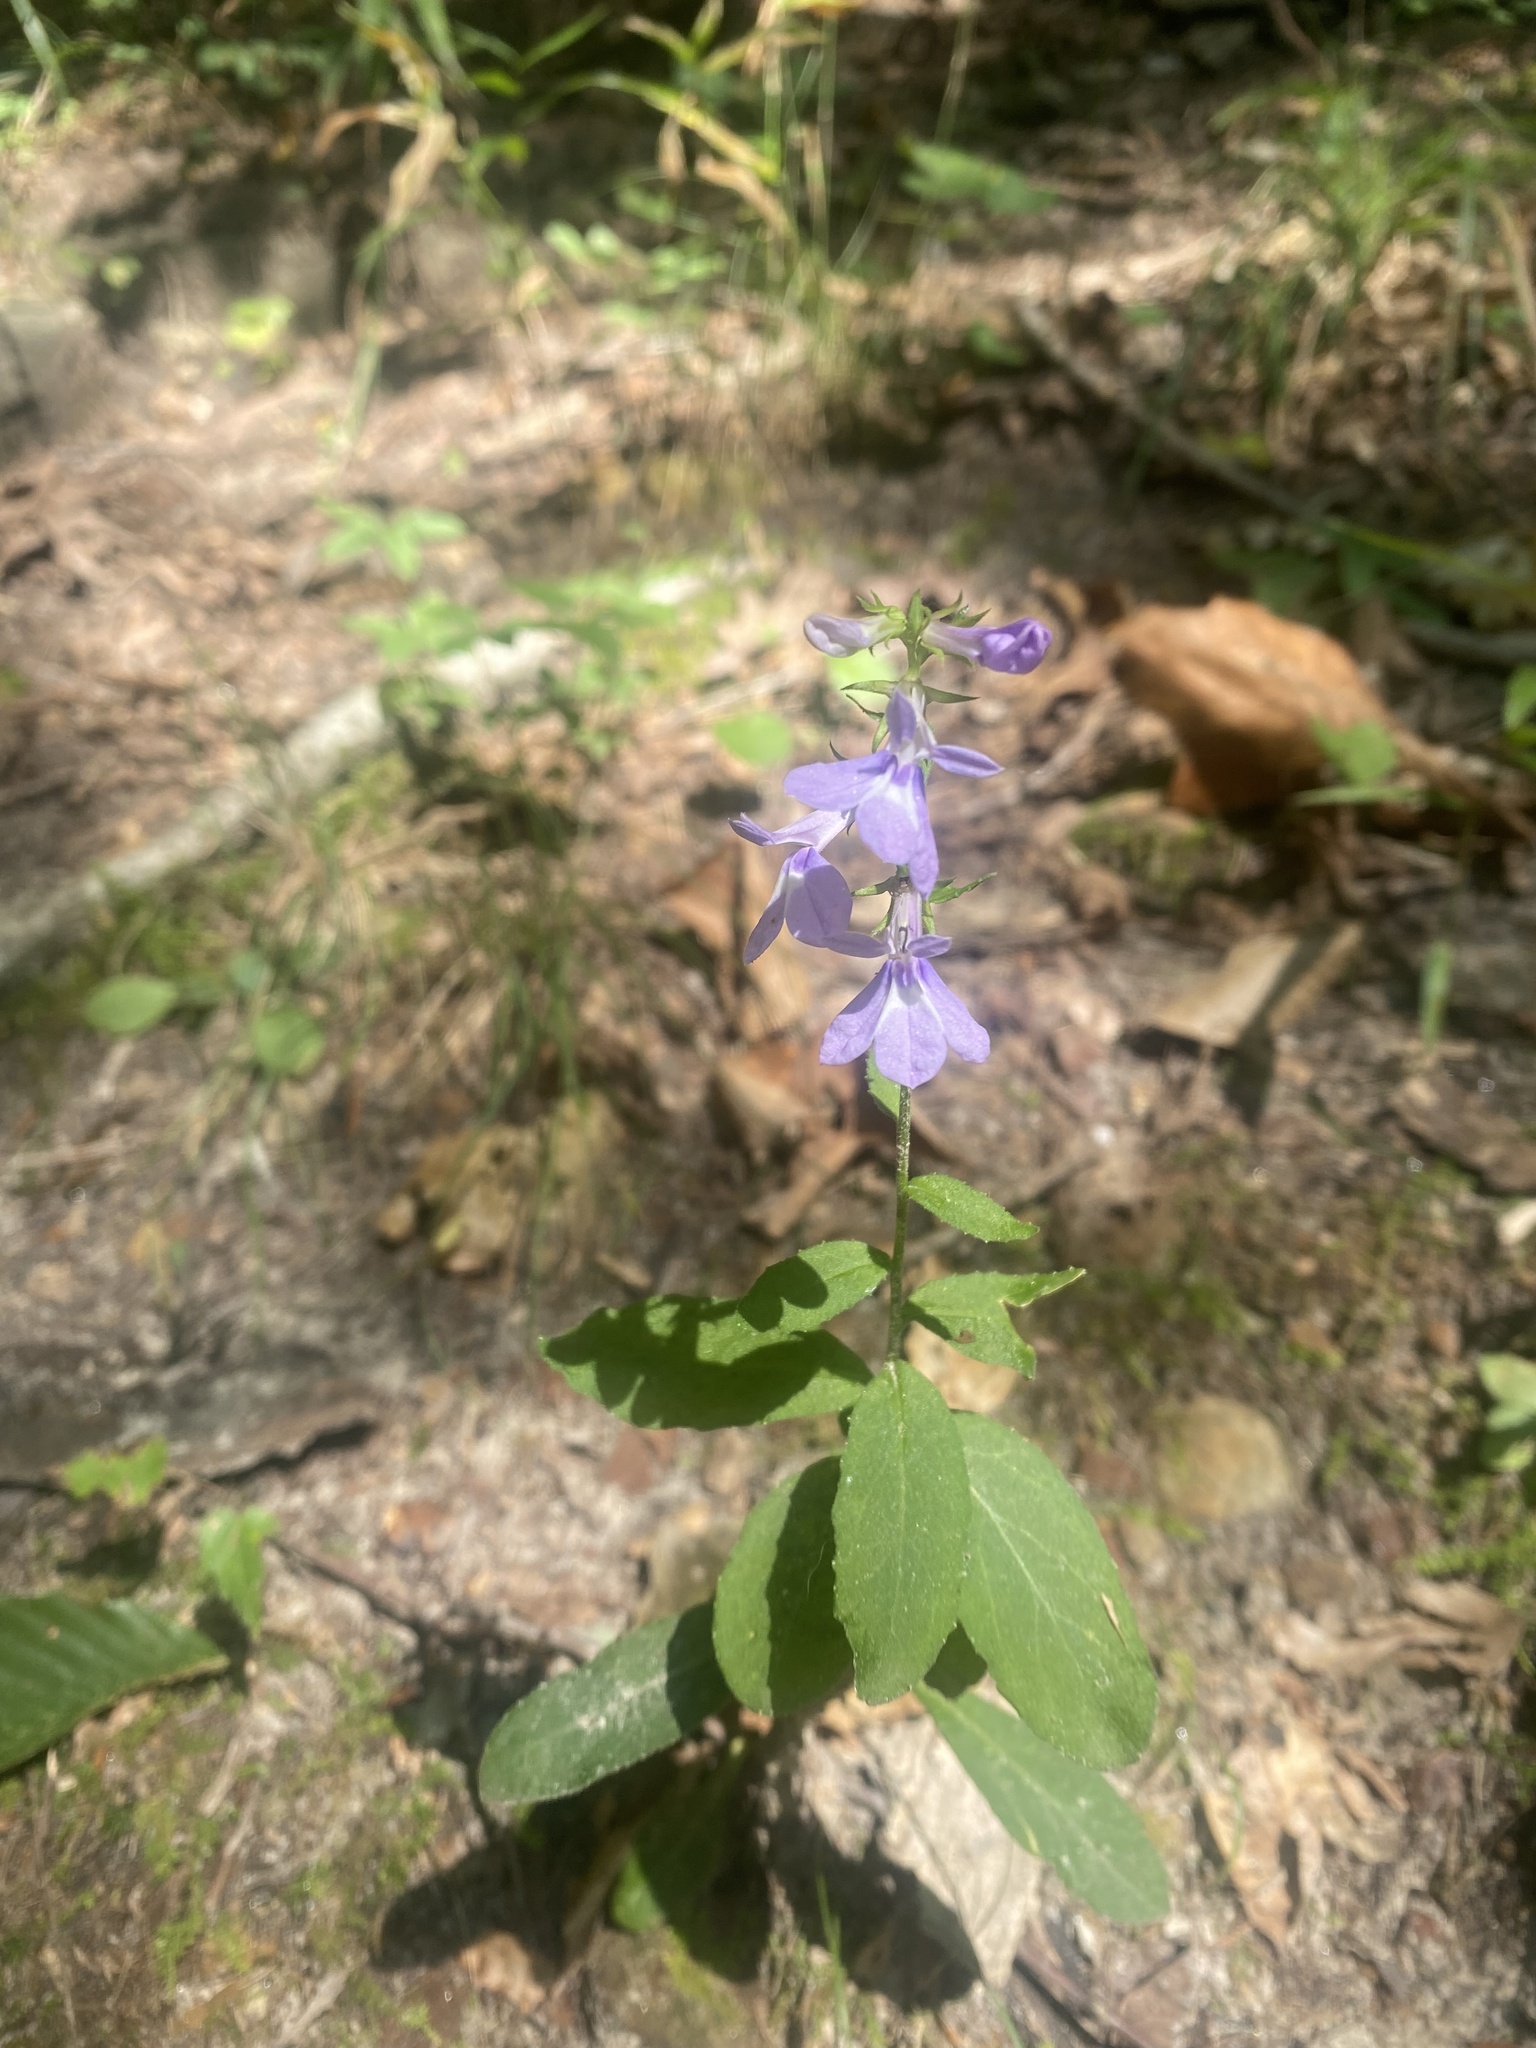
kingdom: Plantae
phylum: Tracheophyta
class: Magnoliopsida
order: Asterales
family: Campanulaceae
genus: Lobelia
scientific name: Lobelia puberula
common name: Purple dewdrop
